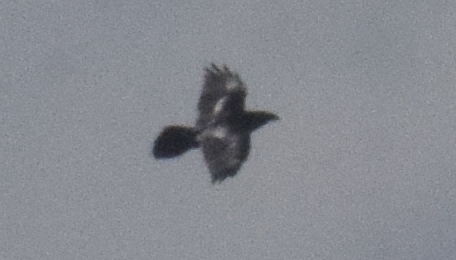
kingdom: Animalia
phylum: Chordata
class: Aves
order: Passeriformes
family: Corvidae
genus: Corvus
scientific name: Corvus corax
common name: Common raven
